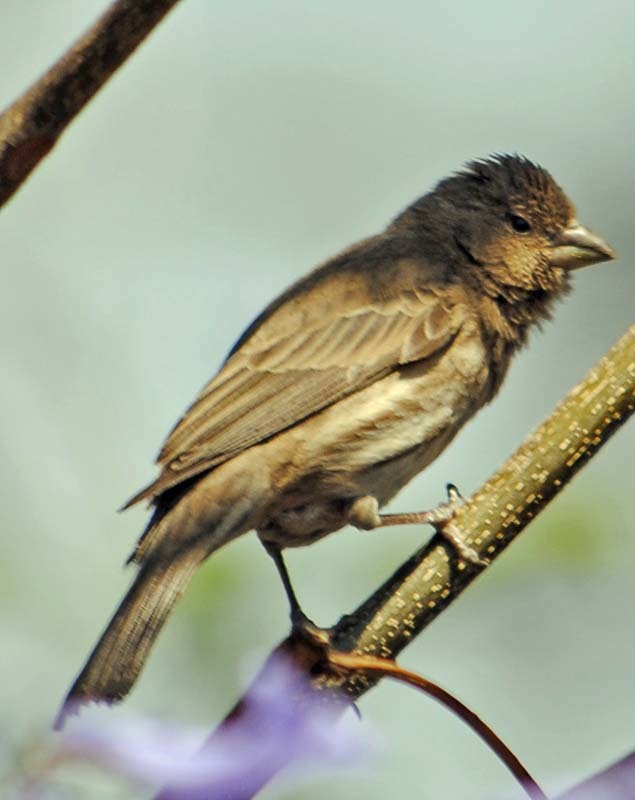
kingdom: Animalia
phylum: Chordata
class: Aves
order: Passeriformes
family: Fringillidae
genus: Haemorhous
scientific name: Haemorhous mexicanus
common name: House finch
